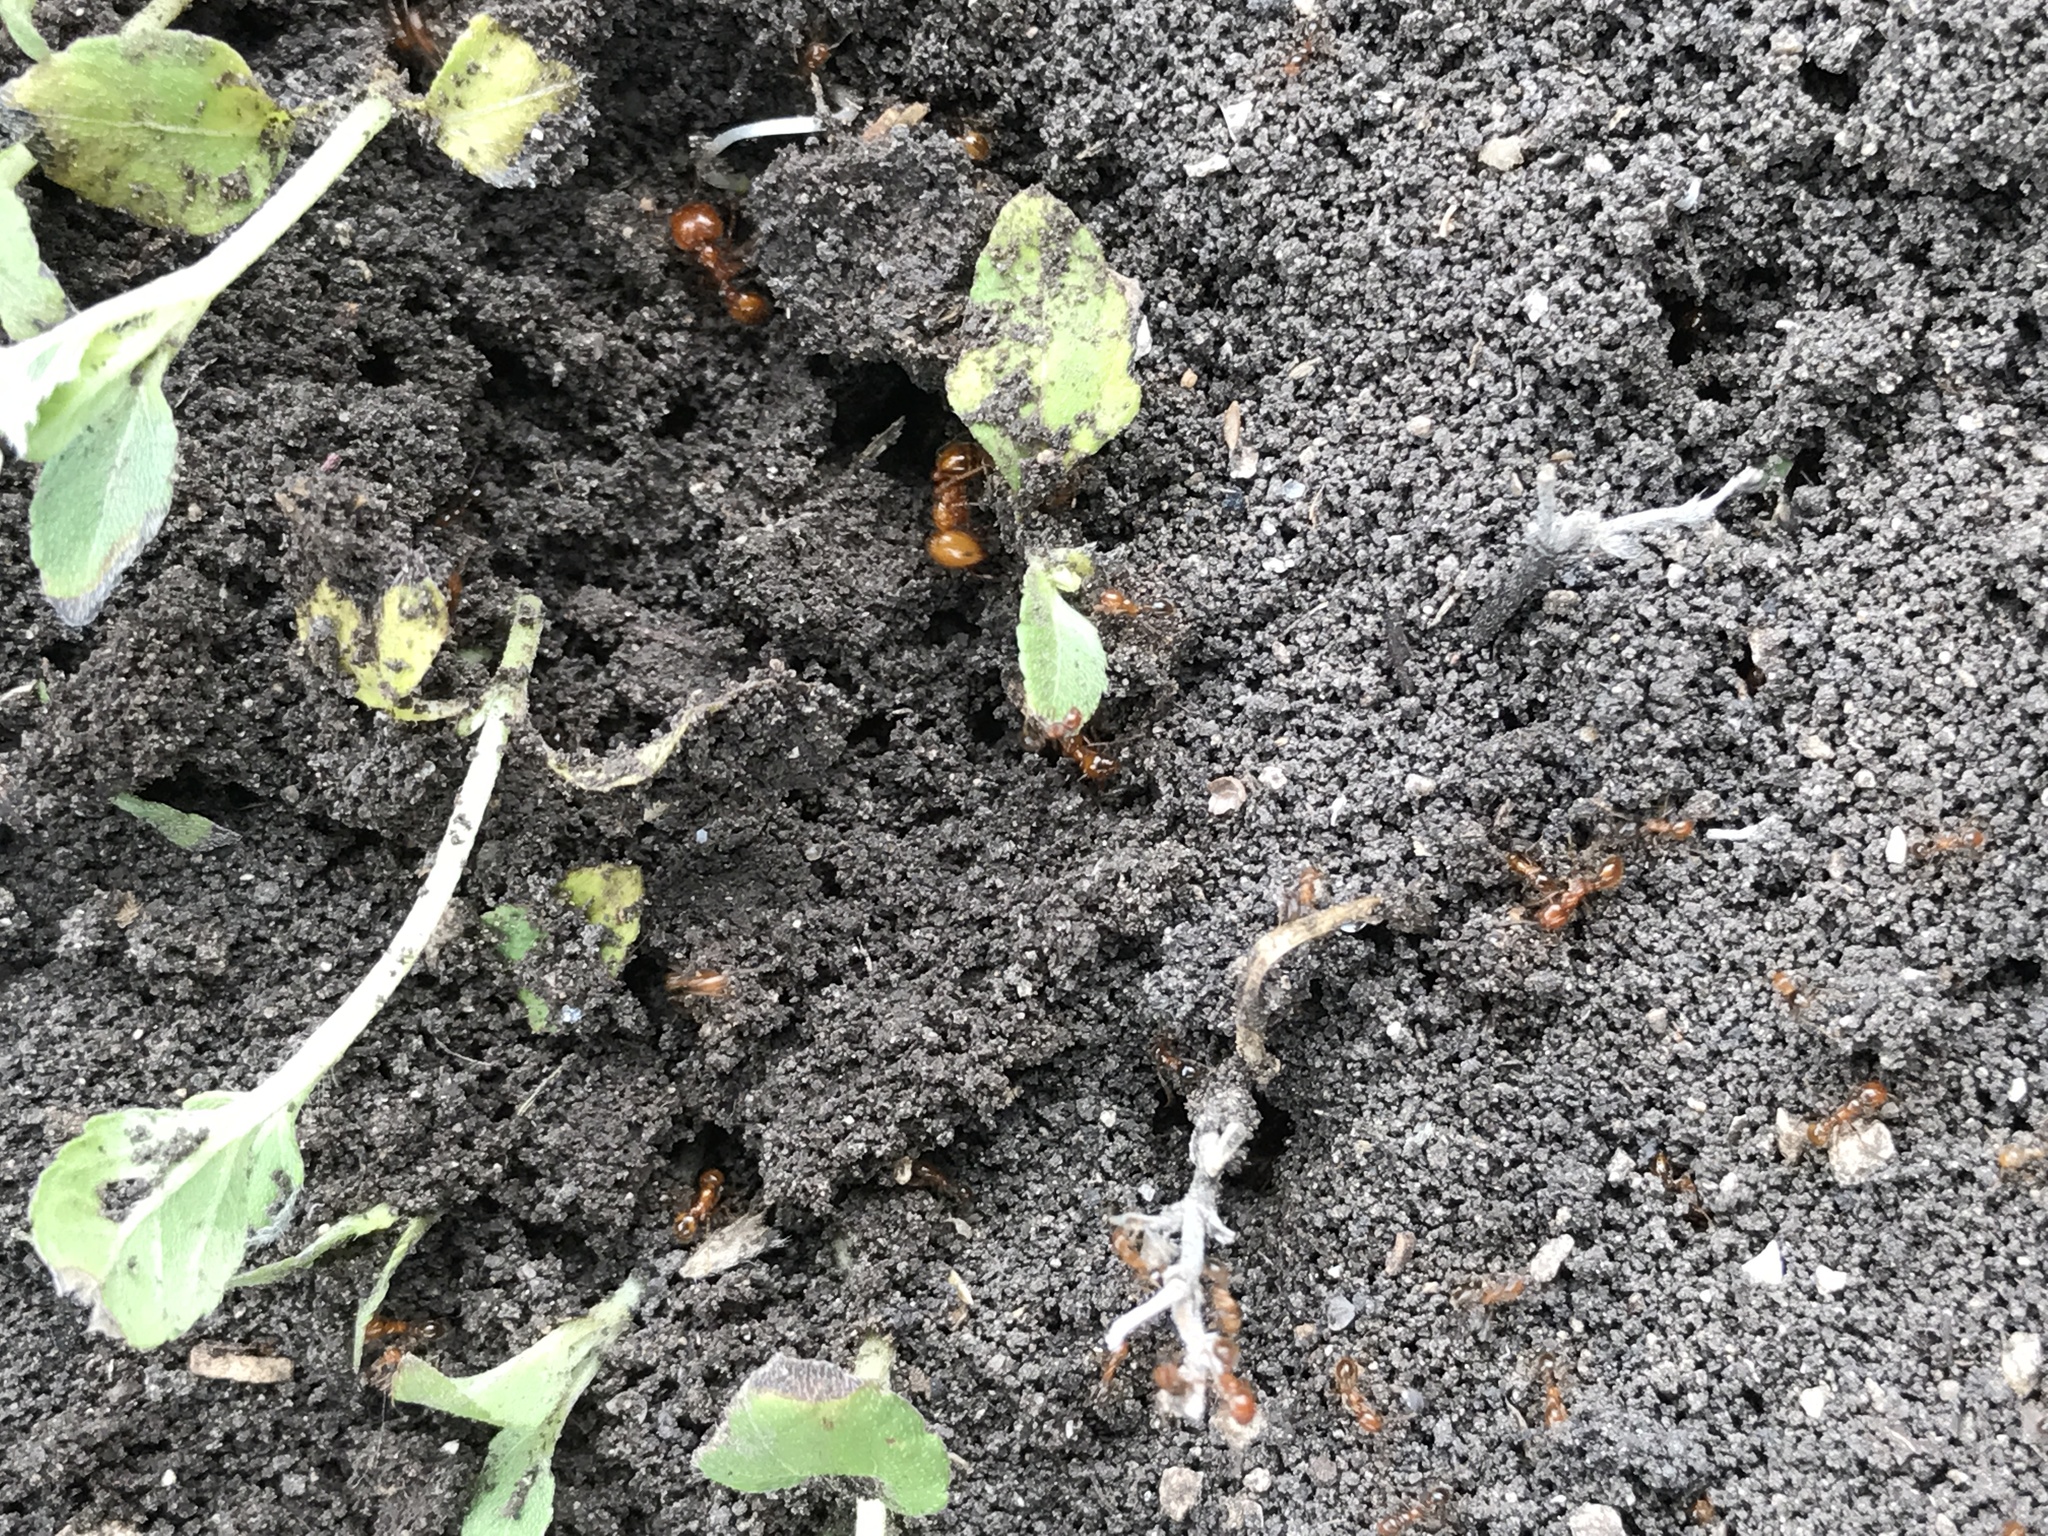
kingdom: Animalia
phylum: Arthropoda
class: Insecta
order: Hymenoptera
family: Formicidae
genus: Solenopsis
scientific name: Solenopsis geminata
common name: Tropical fire ant
